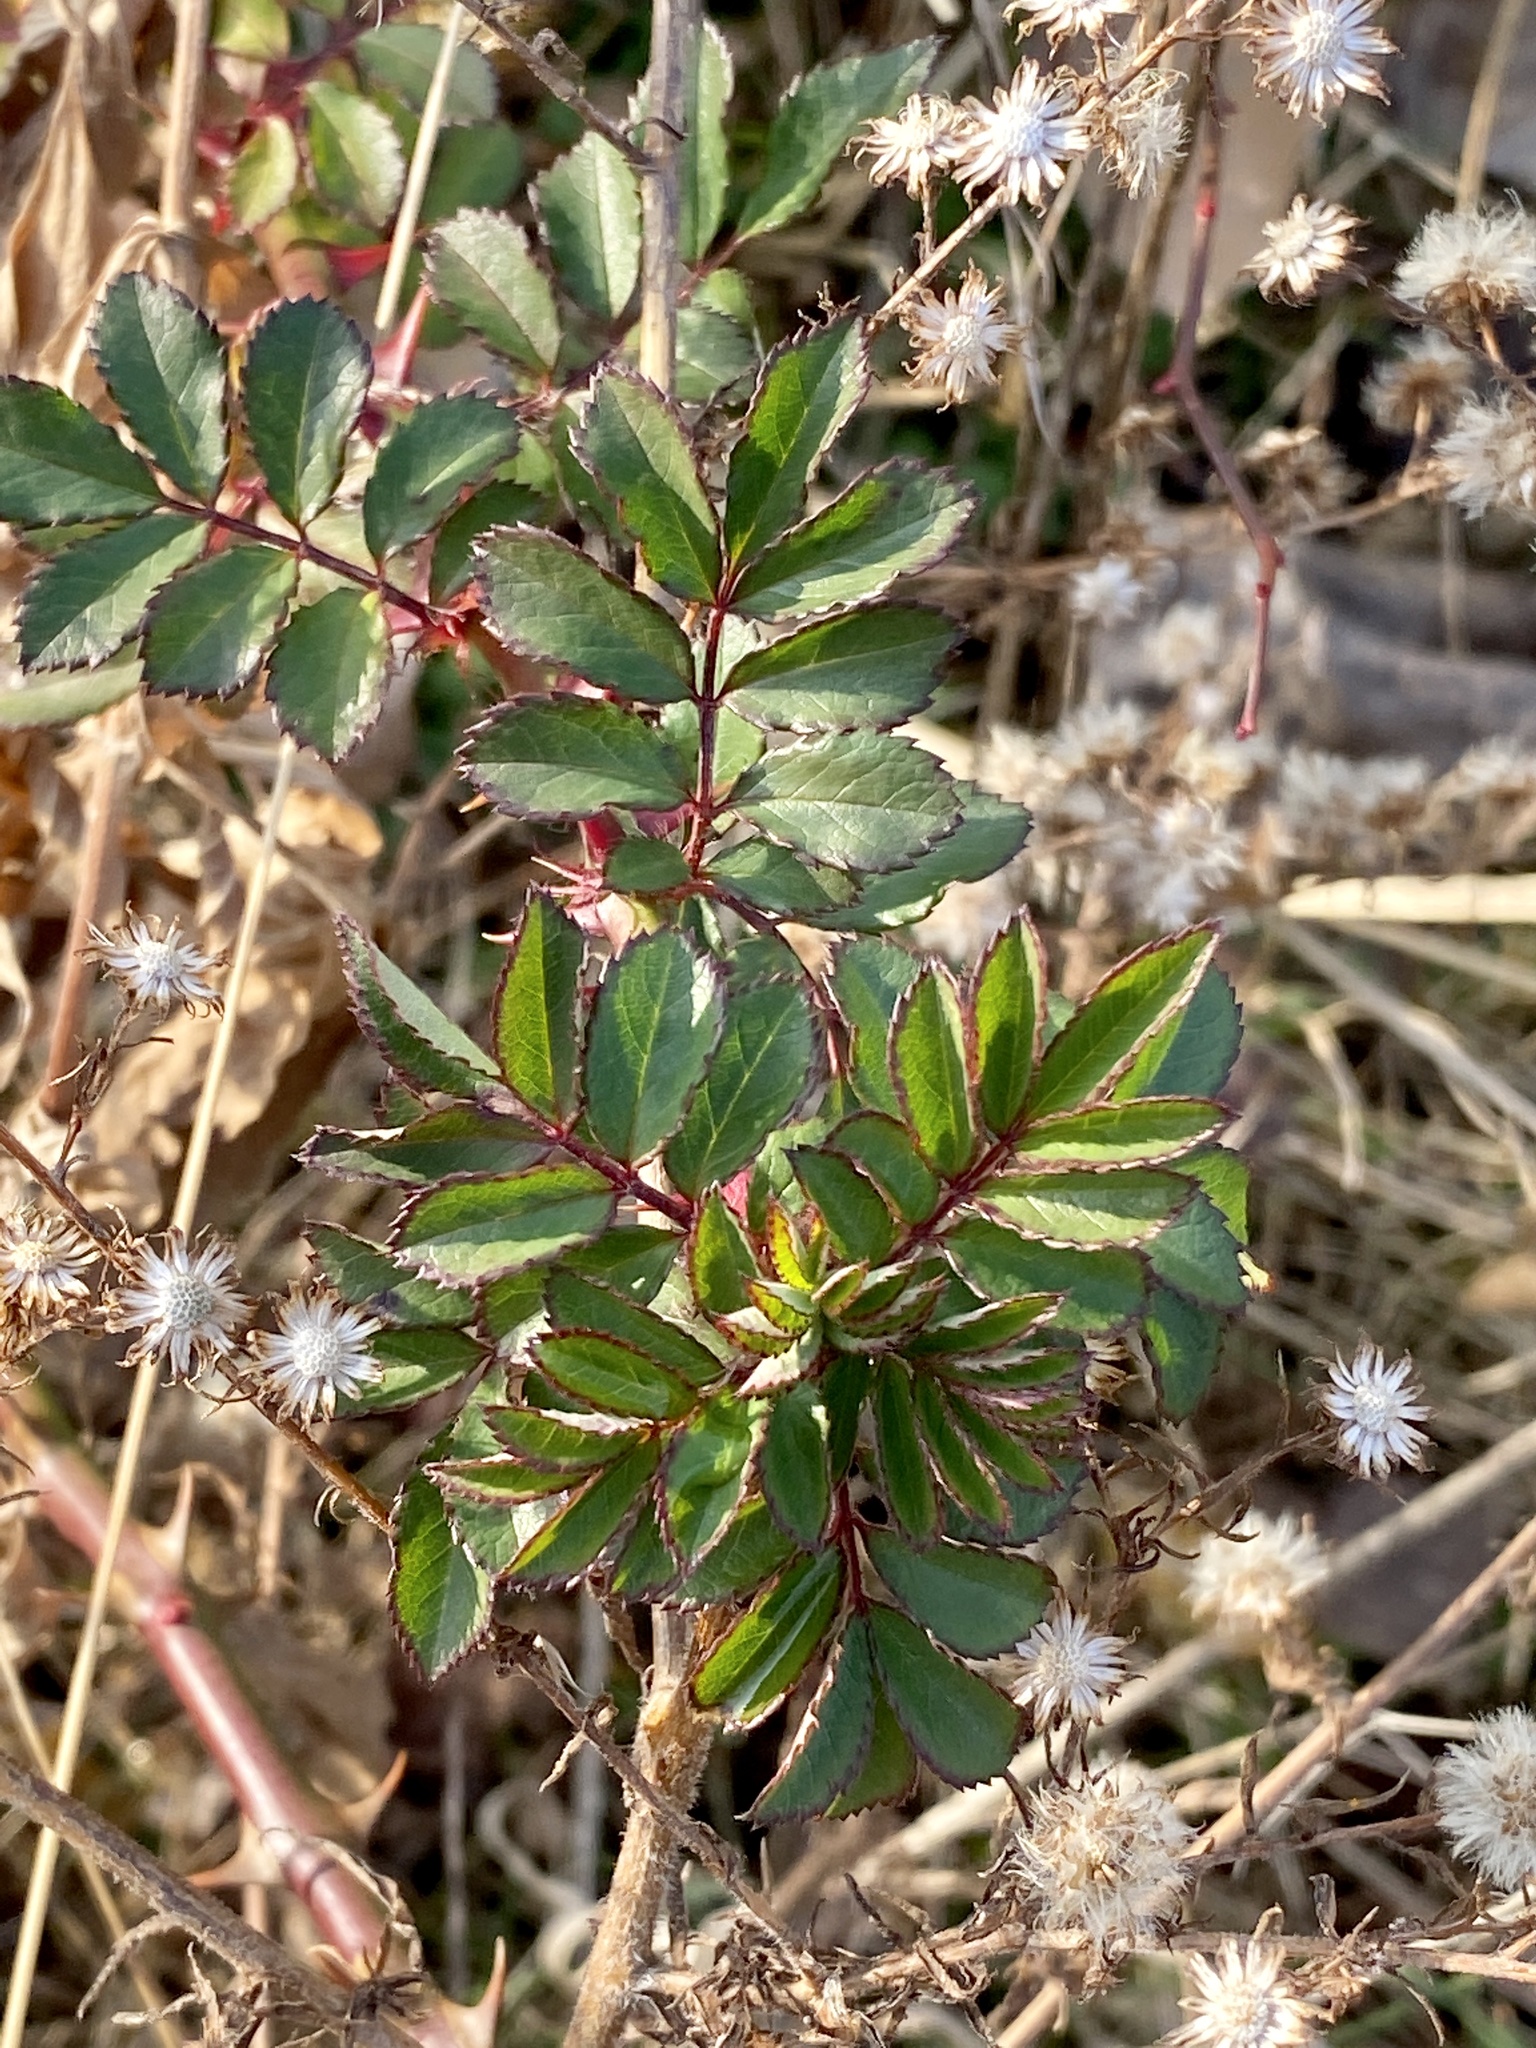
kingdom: Plantae
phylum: Tracheophyta
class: Magnoliopsida
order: Rosales
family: Rosaceae
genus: Rosa
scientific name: Rosa multiflora
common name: Multiflora rose
